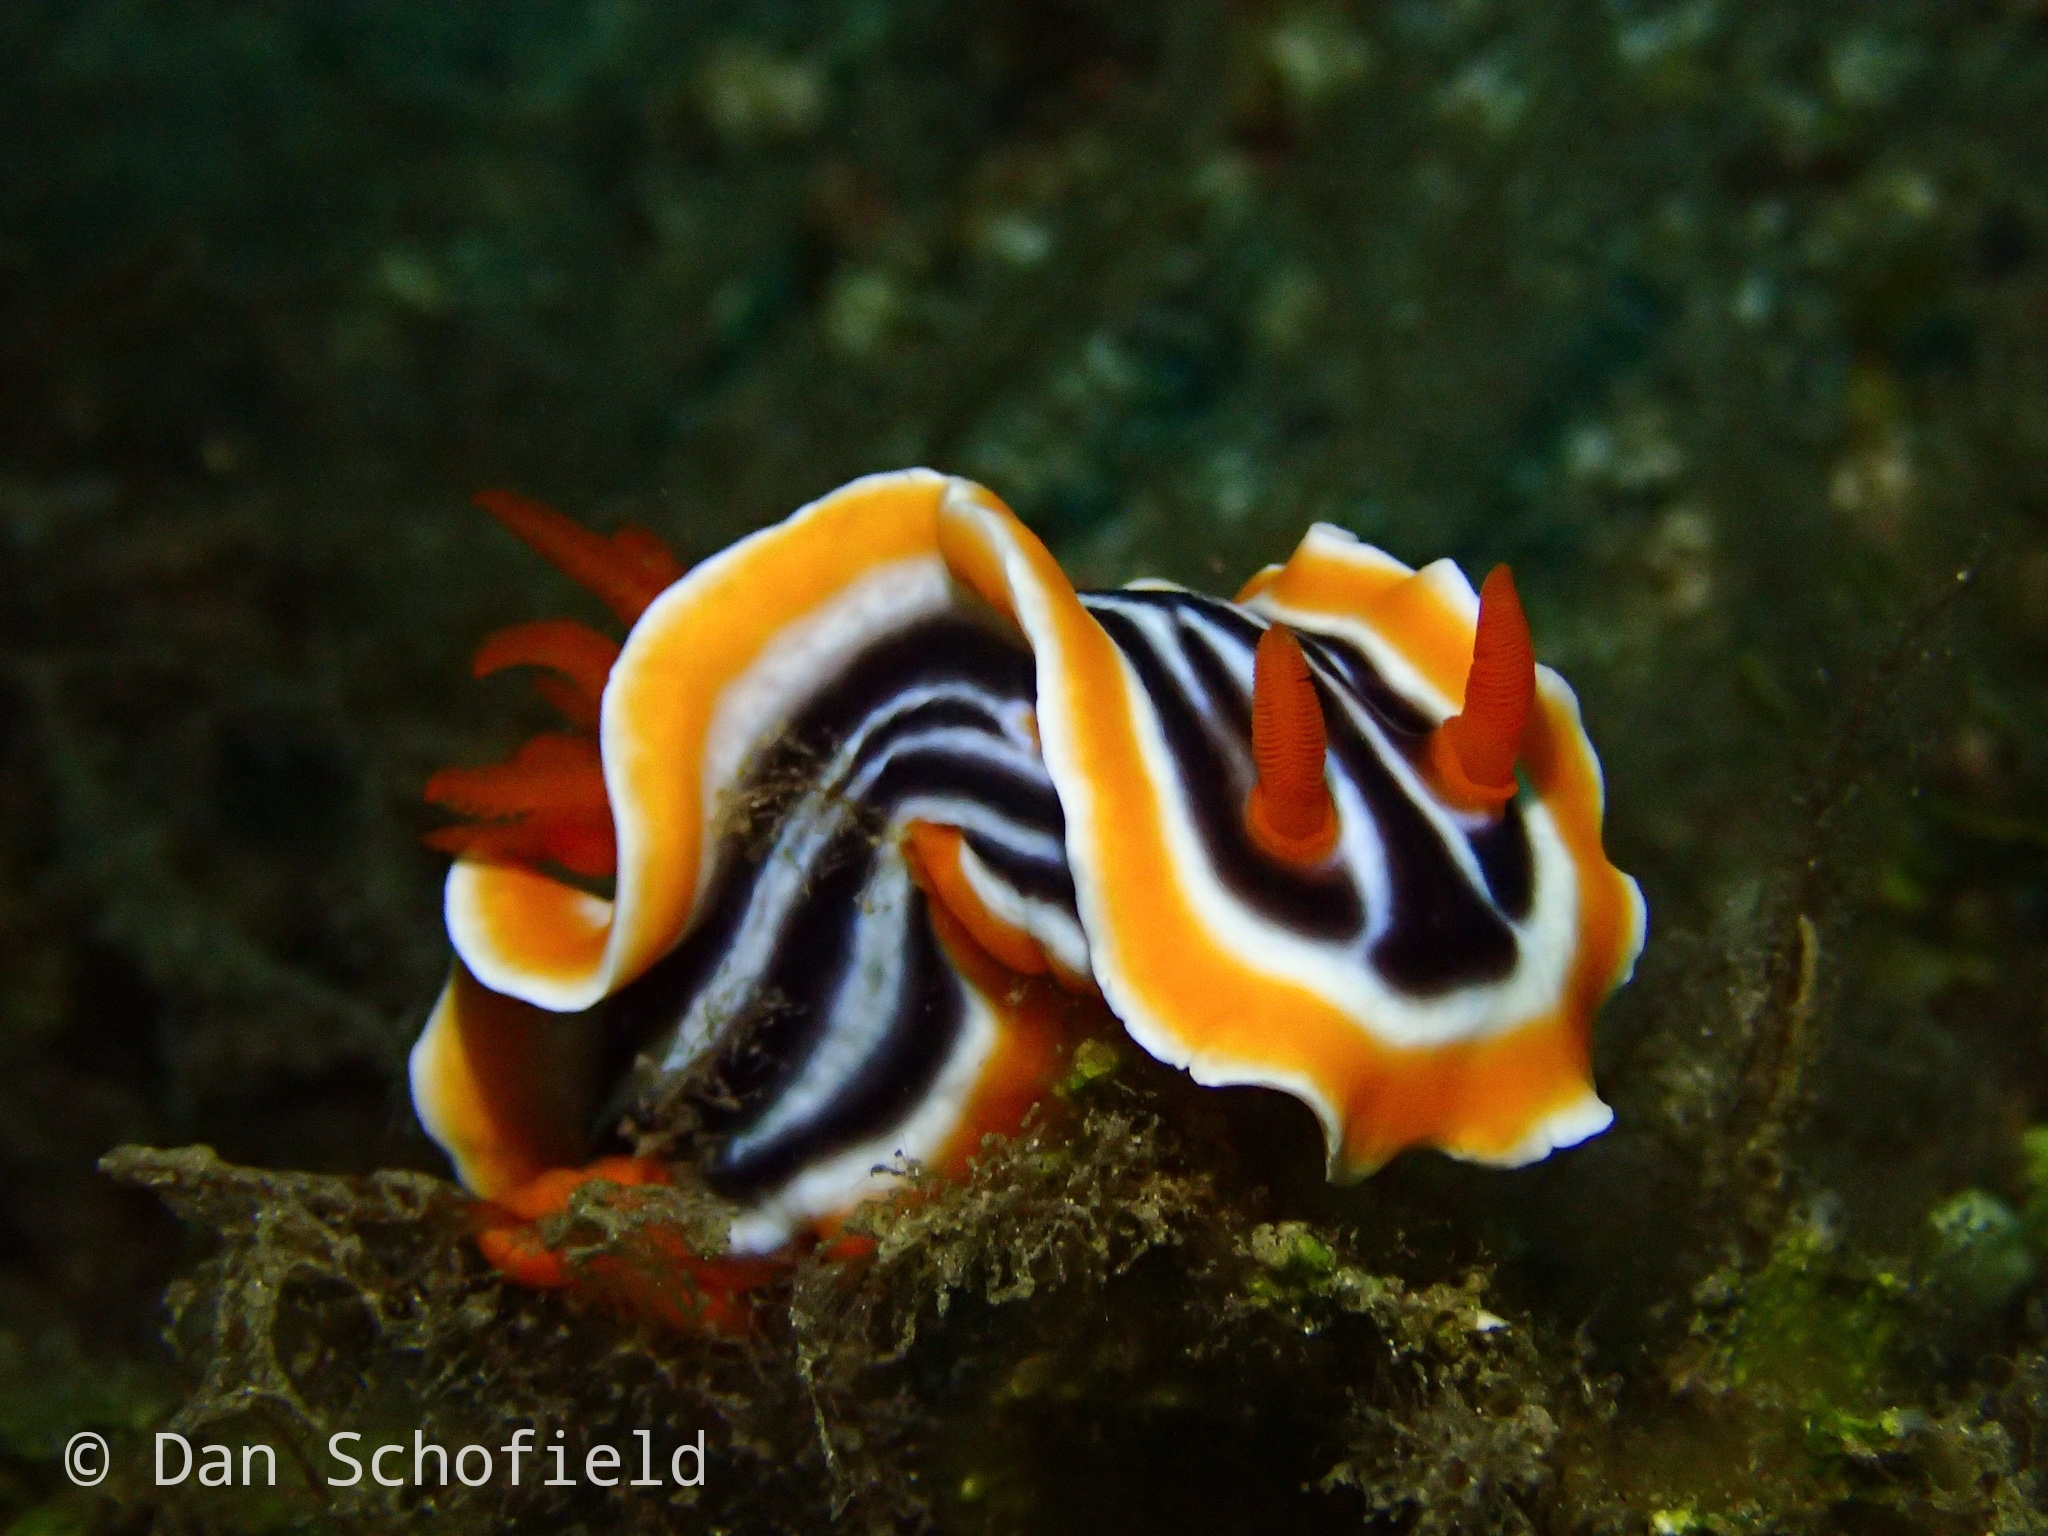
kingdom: Animalia
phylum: Mollusca
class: Gastropoda
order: Nudibranchia
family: Chromodorididae
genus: Chromodoris
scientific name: Chromodoris magnifica
